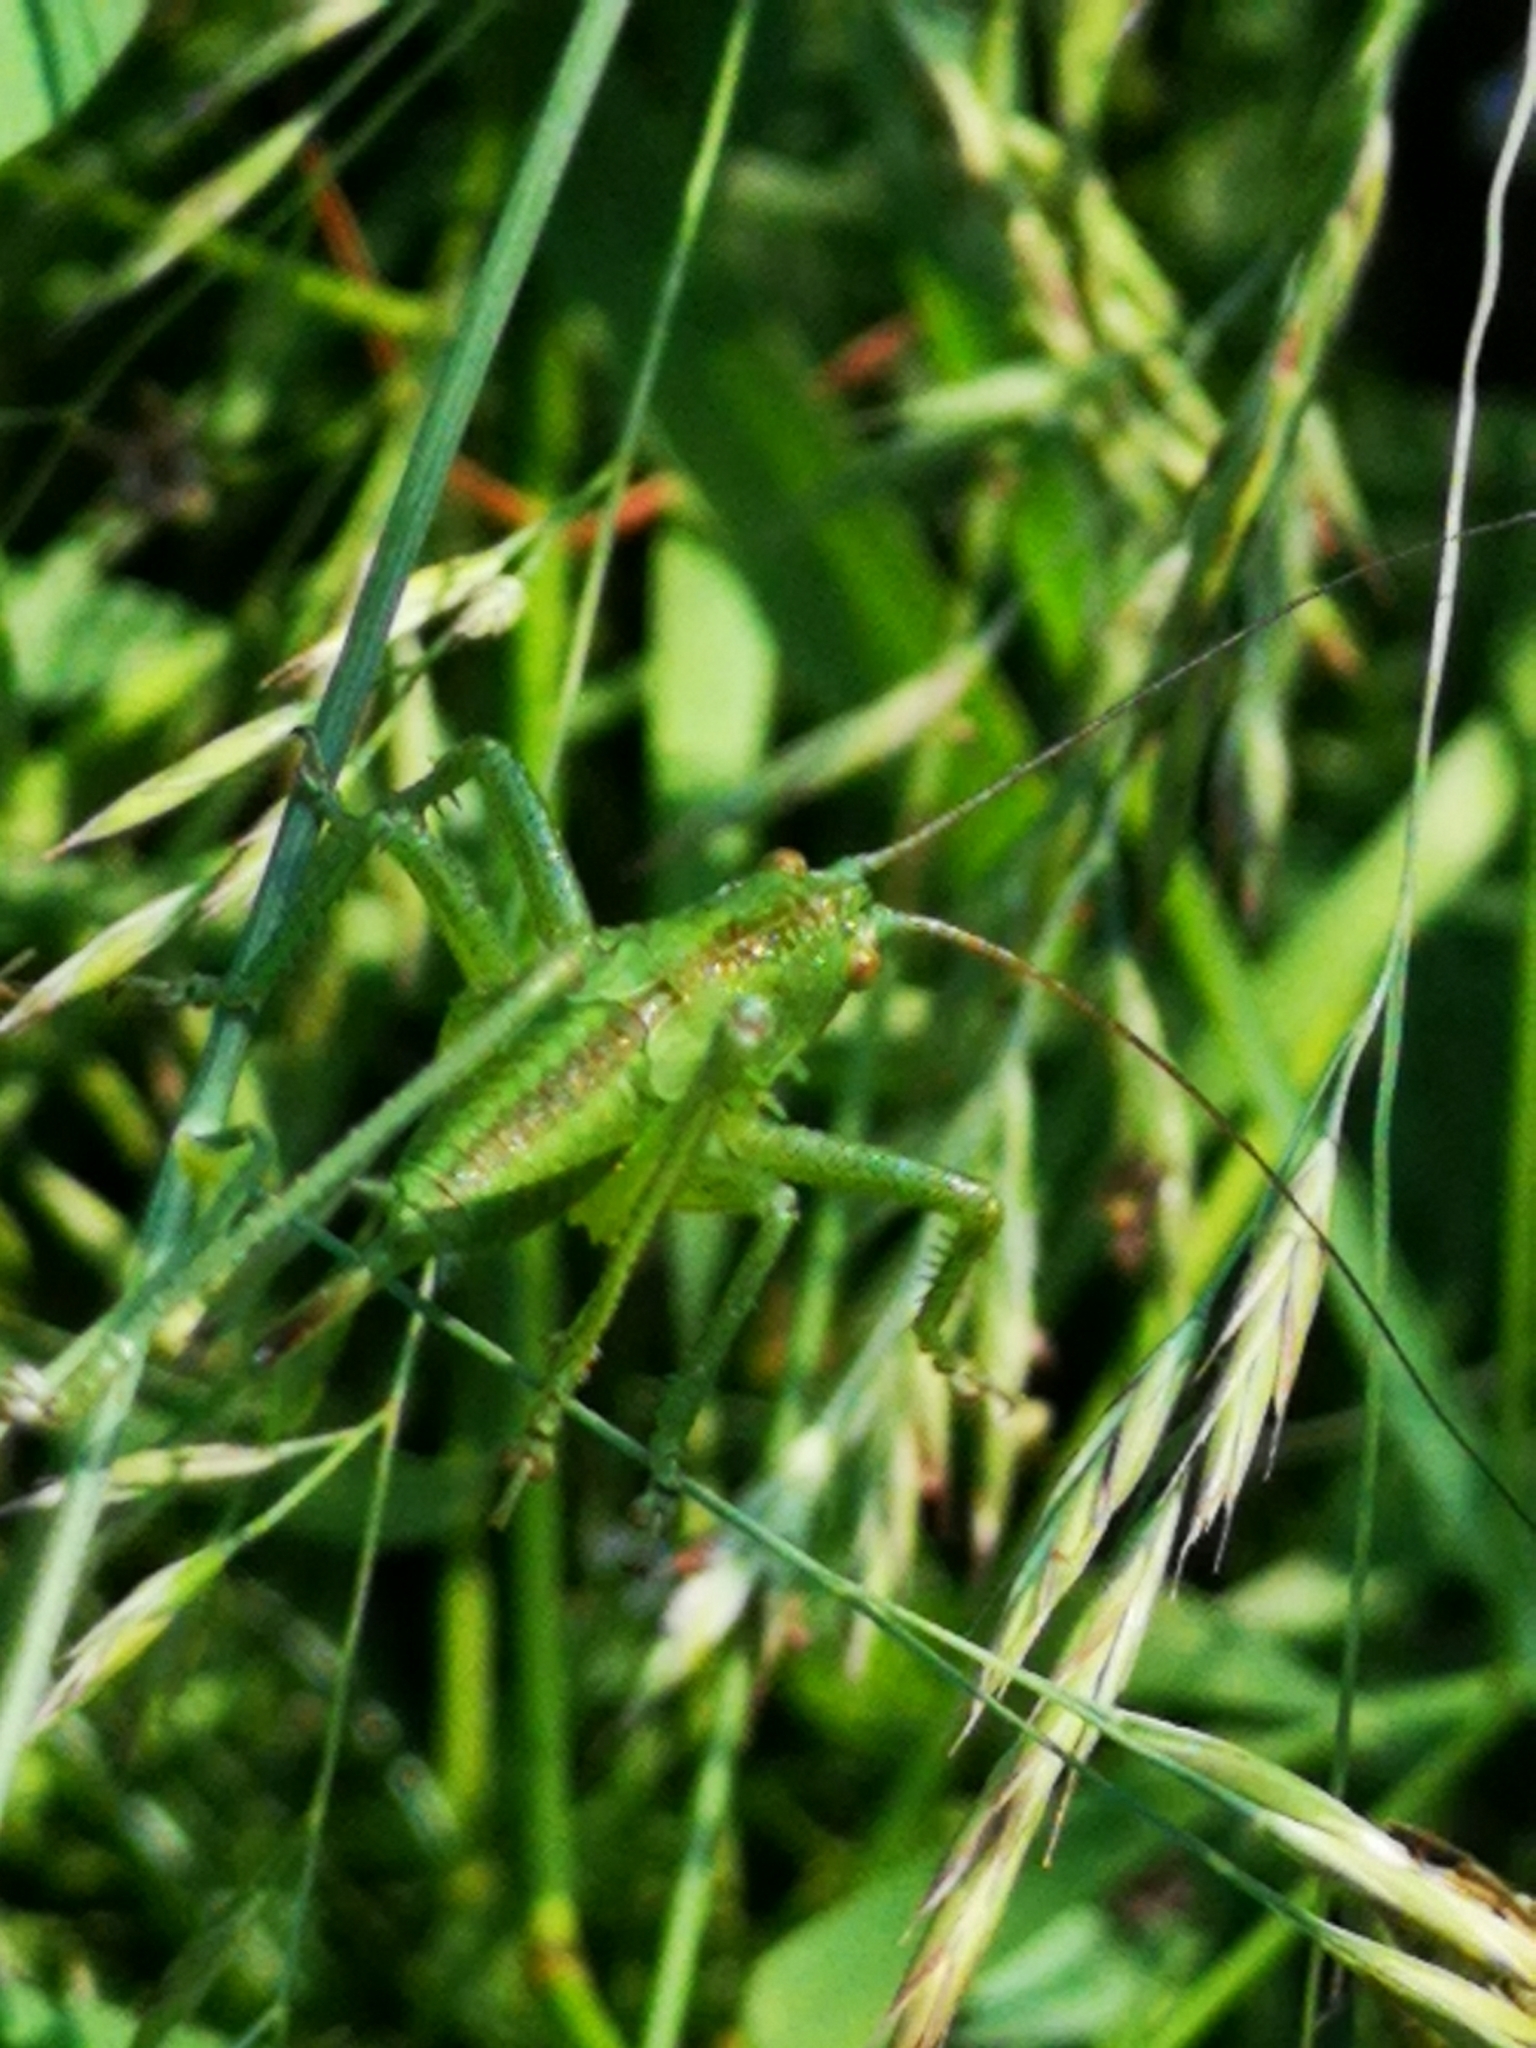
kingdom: Animalia
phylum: Arthropoda
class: Insecta
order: Orthoptera
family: Tettigoniidae
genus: Tettigonia
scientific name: Tettigonia
